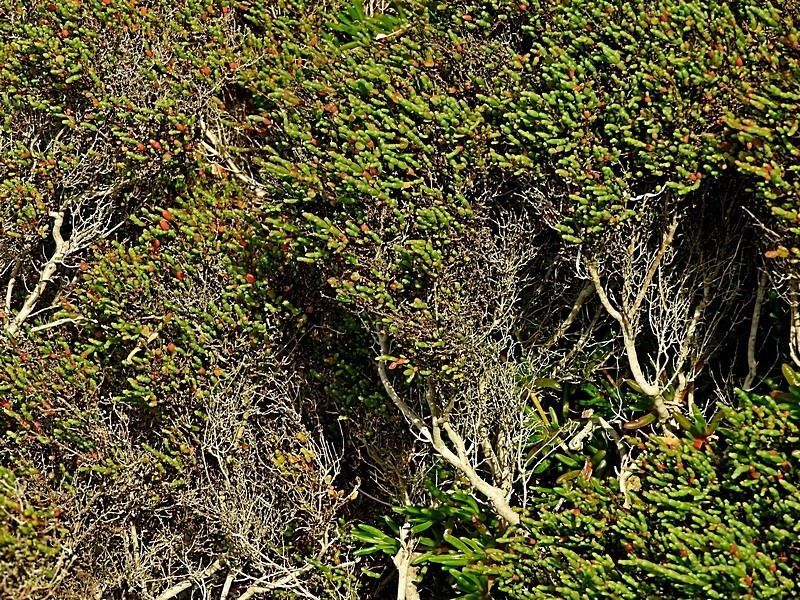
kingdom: Plantae
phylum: Tracheophyta
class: Magnoliopsida
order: Caryophyllales
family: Amaranthaceae
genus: Tecticornia
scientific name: Tecticornia arbuscula
